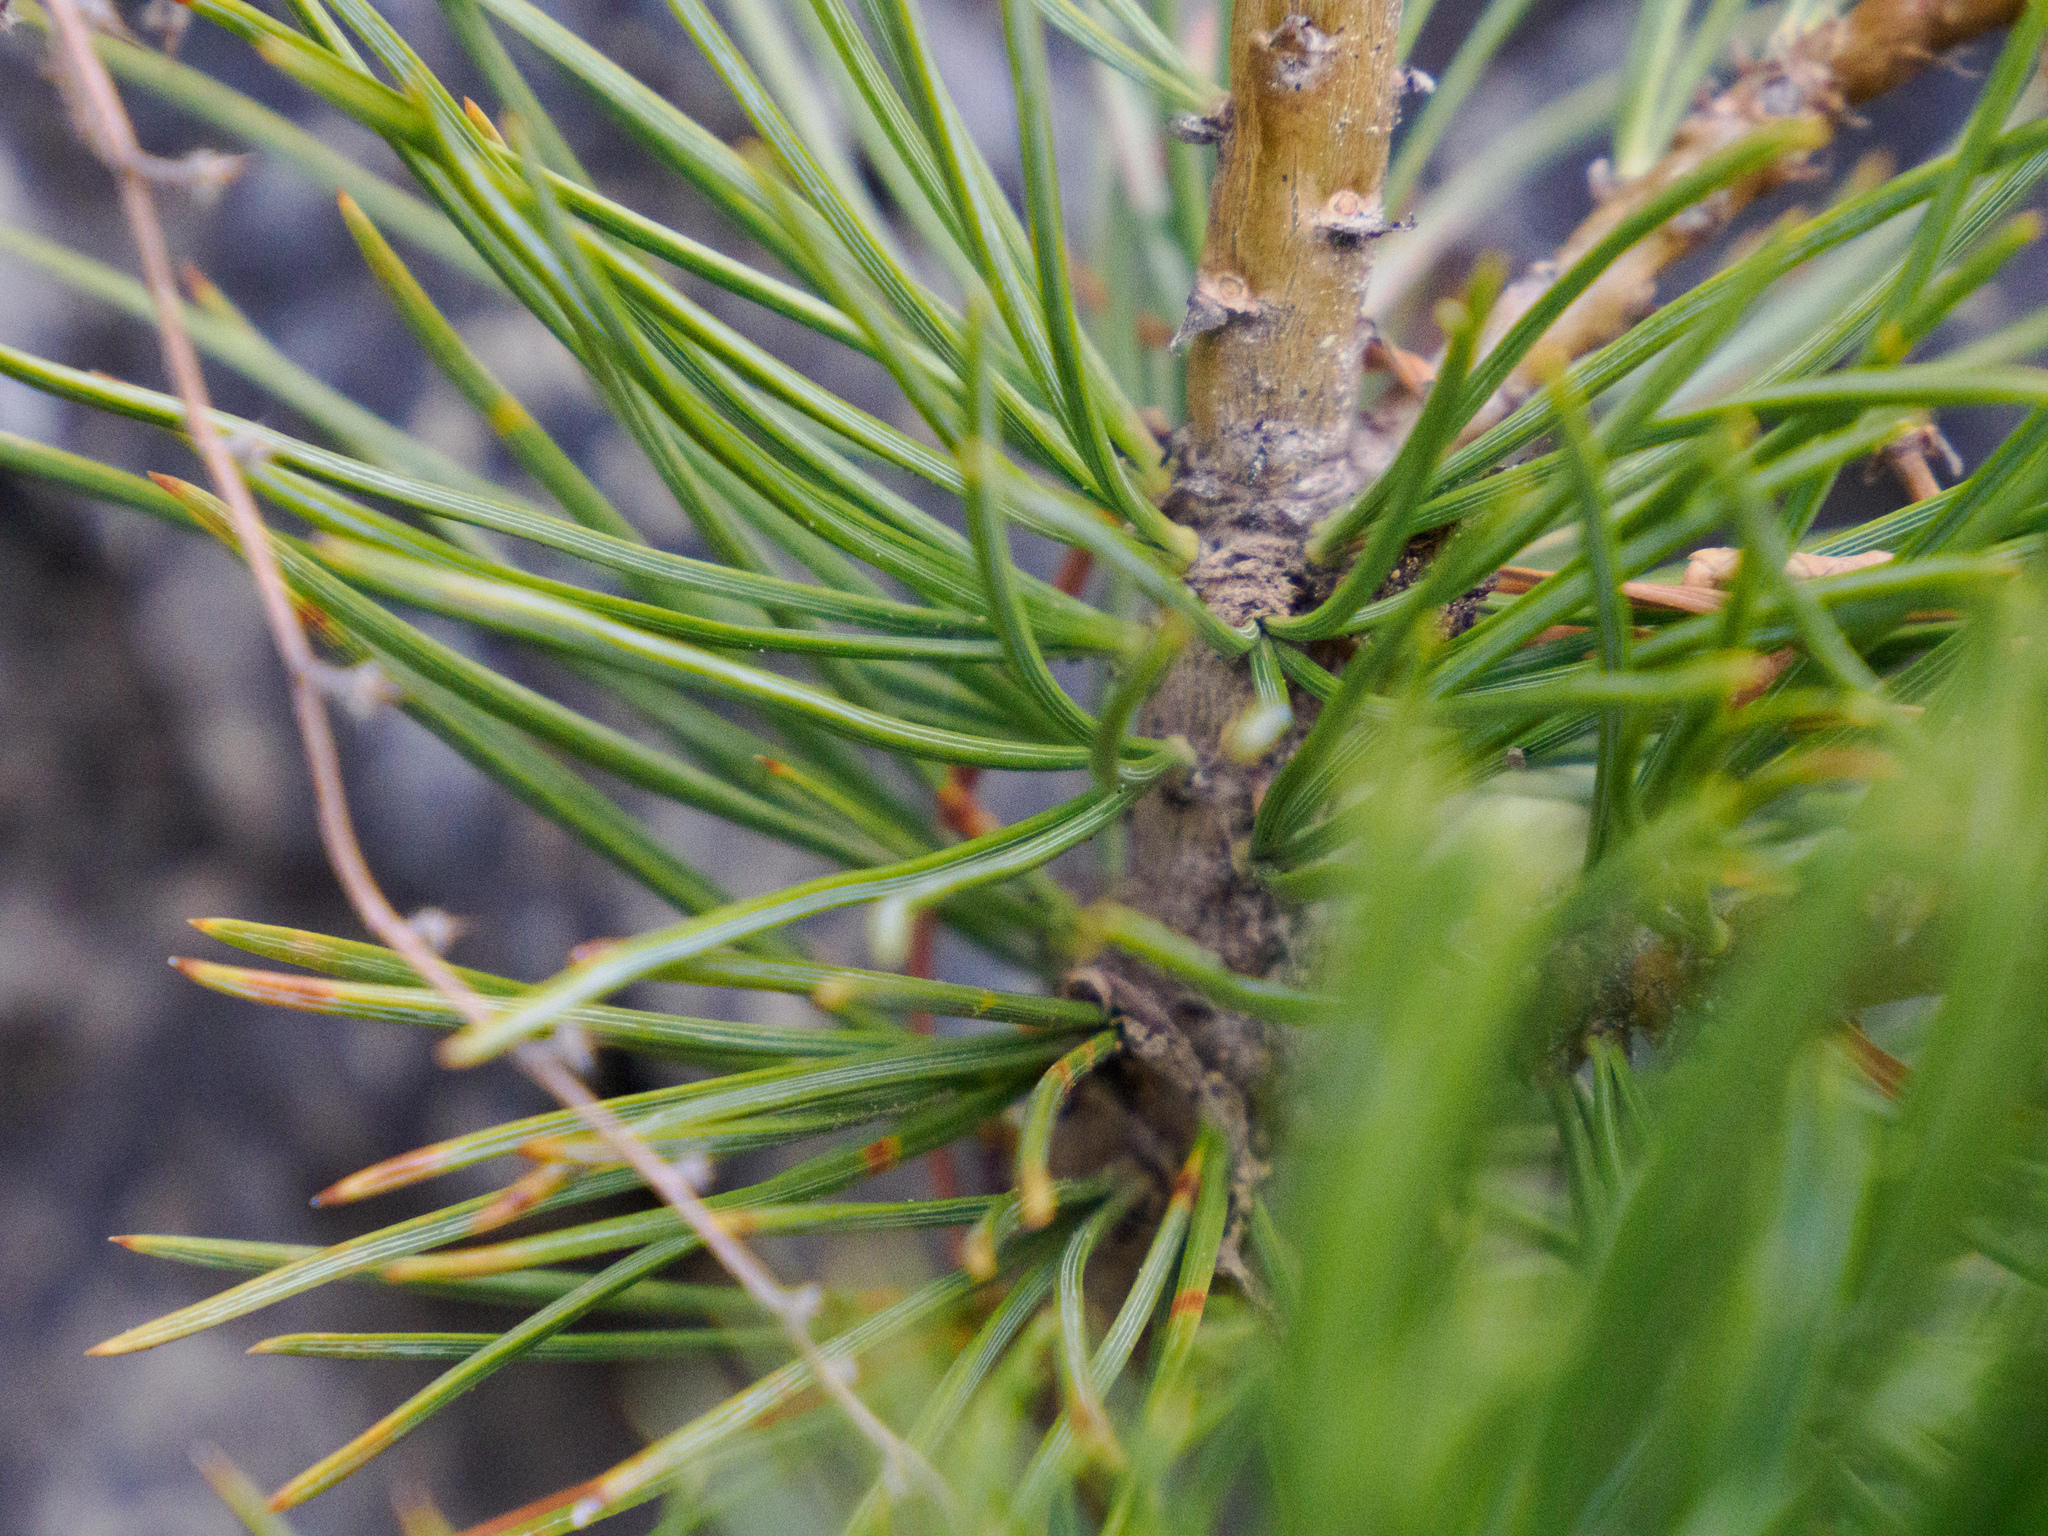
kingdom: Plantae
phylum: Tracheophyta
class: Pinopsida
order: Pinales
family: Pinaceae
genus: Pinus
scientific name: Pinus flexilis
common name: Limber pine
